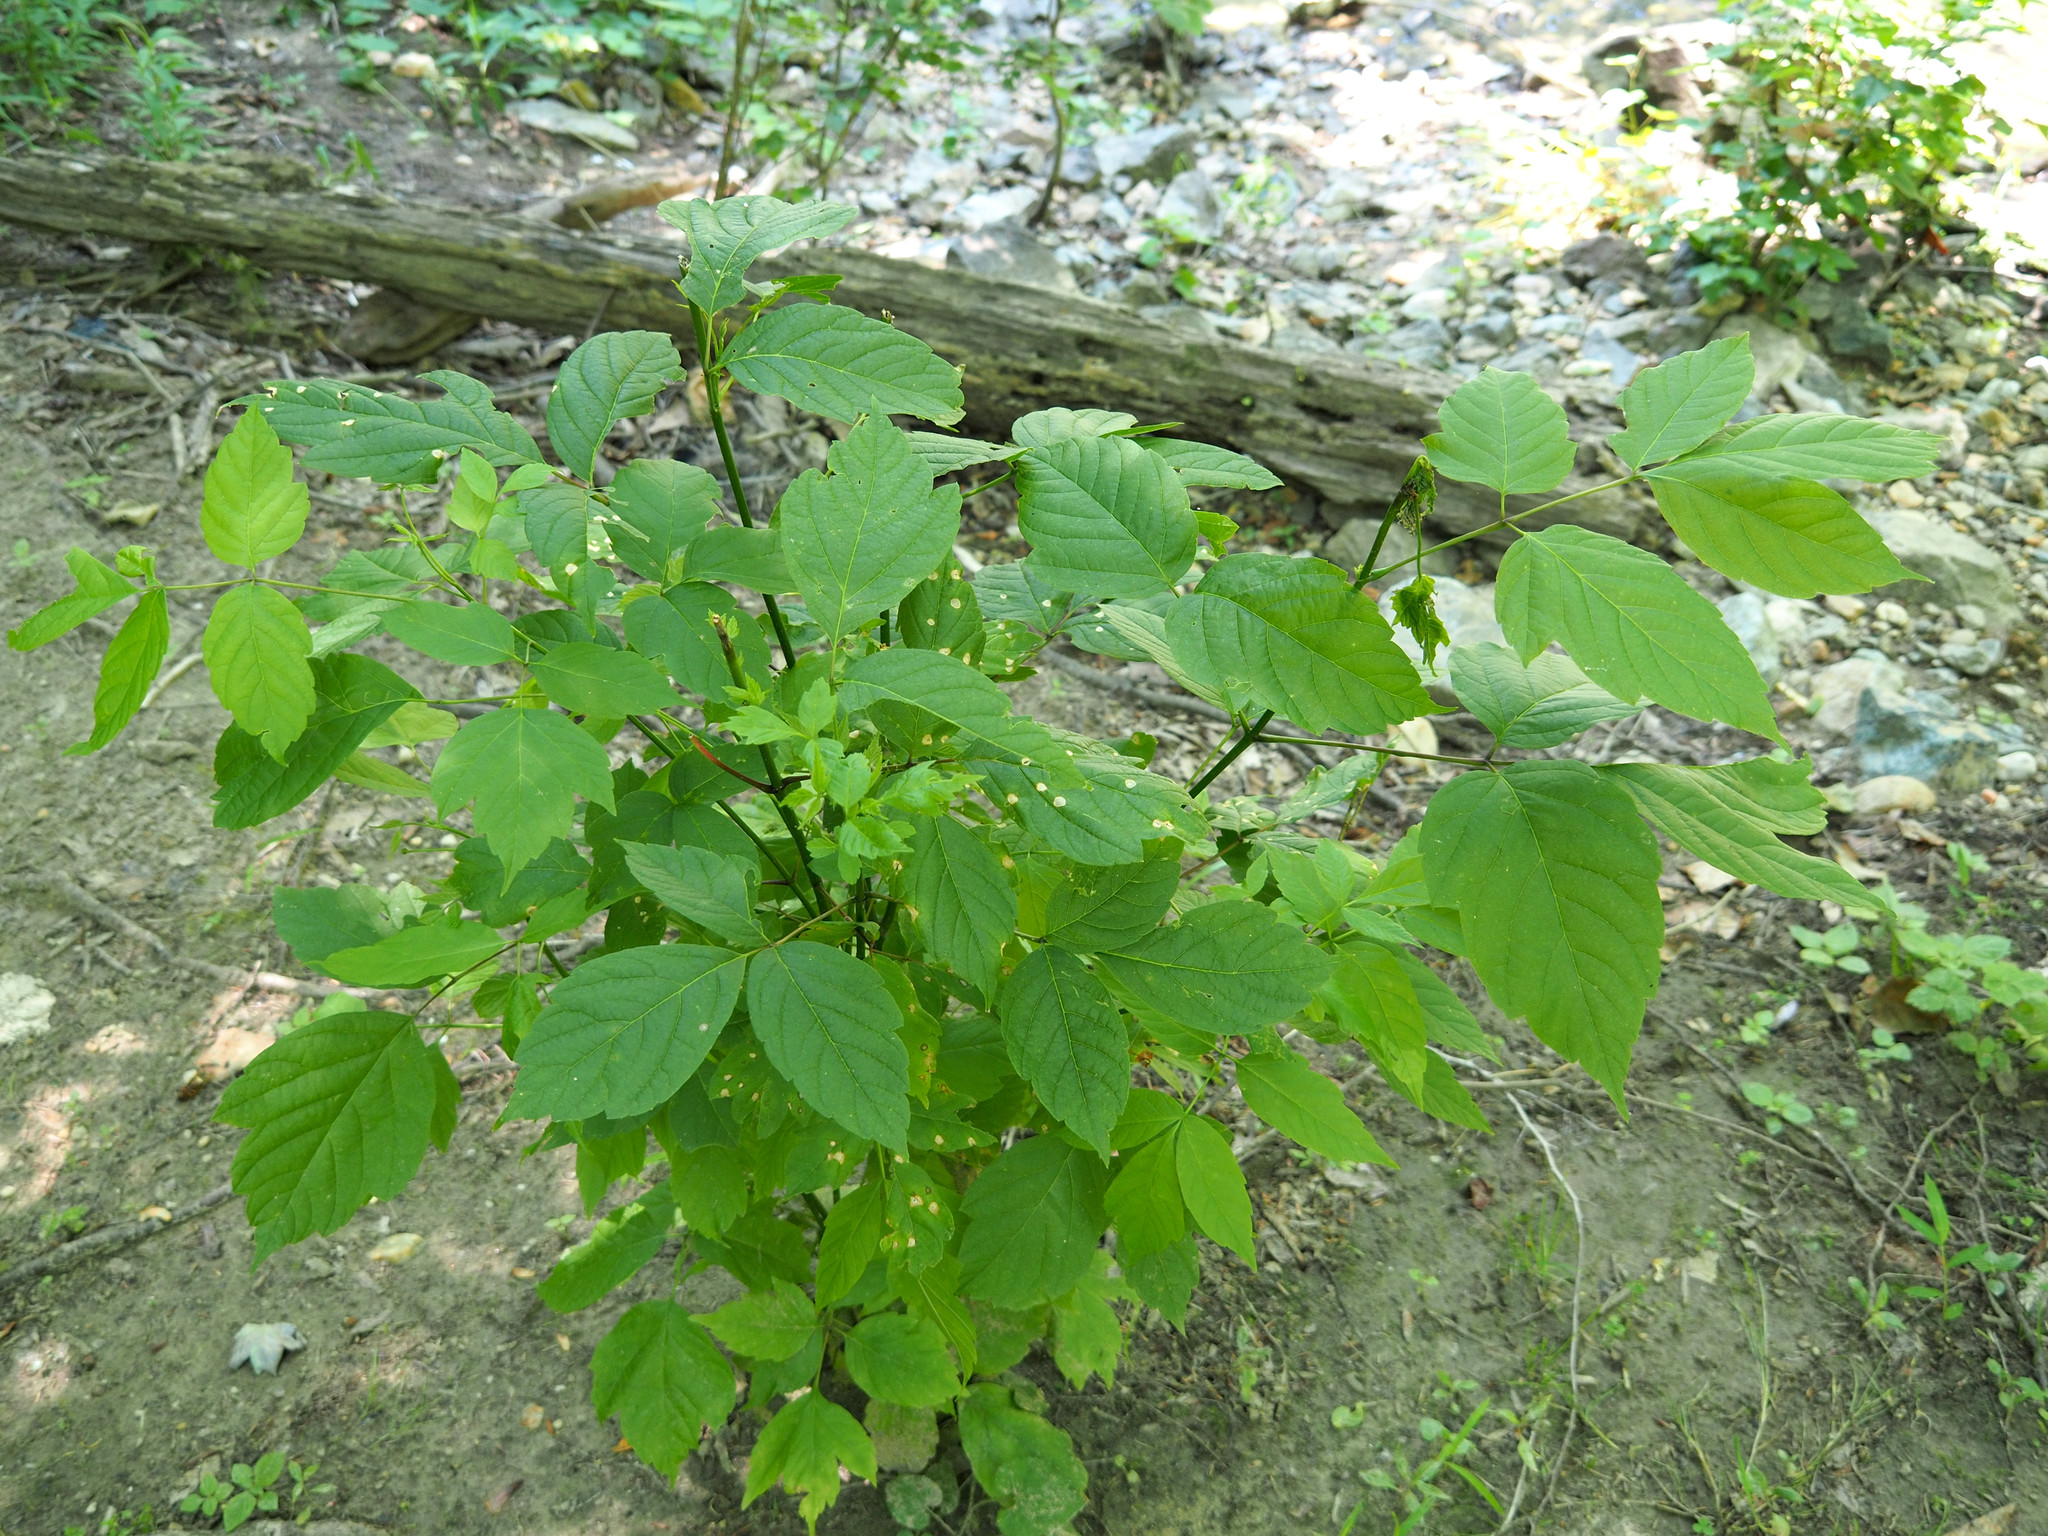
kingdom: Plantae
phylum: Tracheophyta
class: Magnoliopsida
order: Sapindales
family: Sapindaceae
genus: Acer
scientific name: Acer negundo
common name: Ashleaf maple
